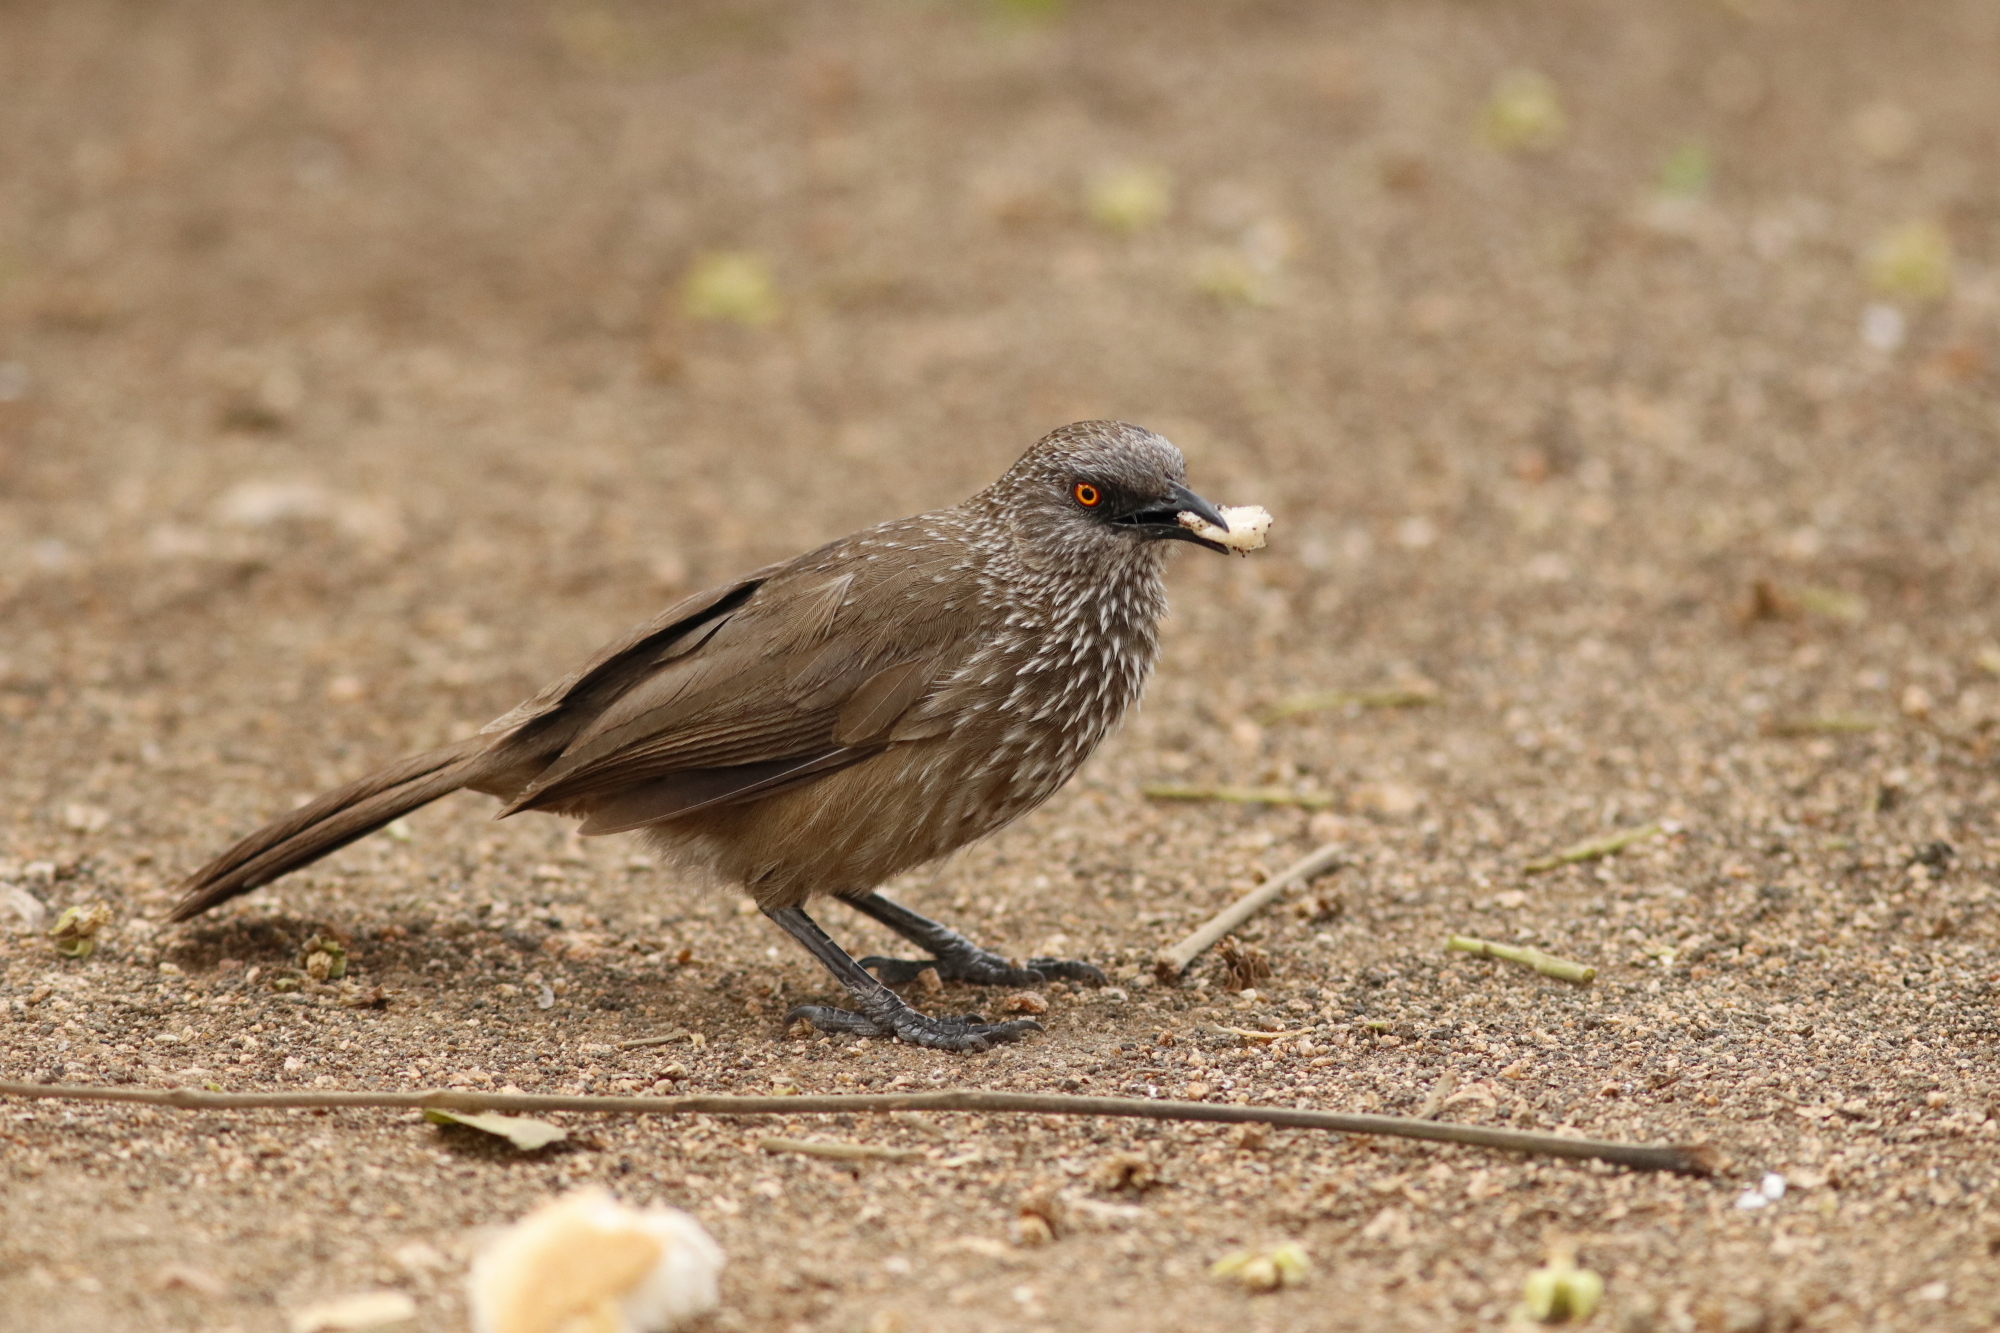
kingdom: Animalia
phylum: Chordata
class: Aves
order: Passeriformes
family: Leiothrichidae
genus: Turdoides
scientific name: Turdoides jardineii
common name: Arrow-marked babbler
